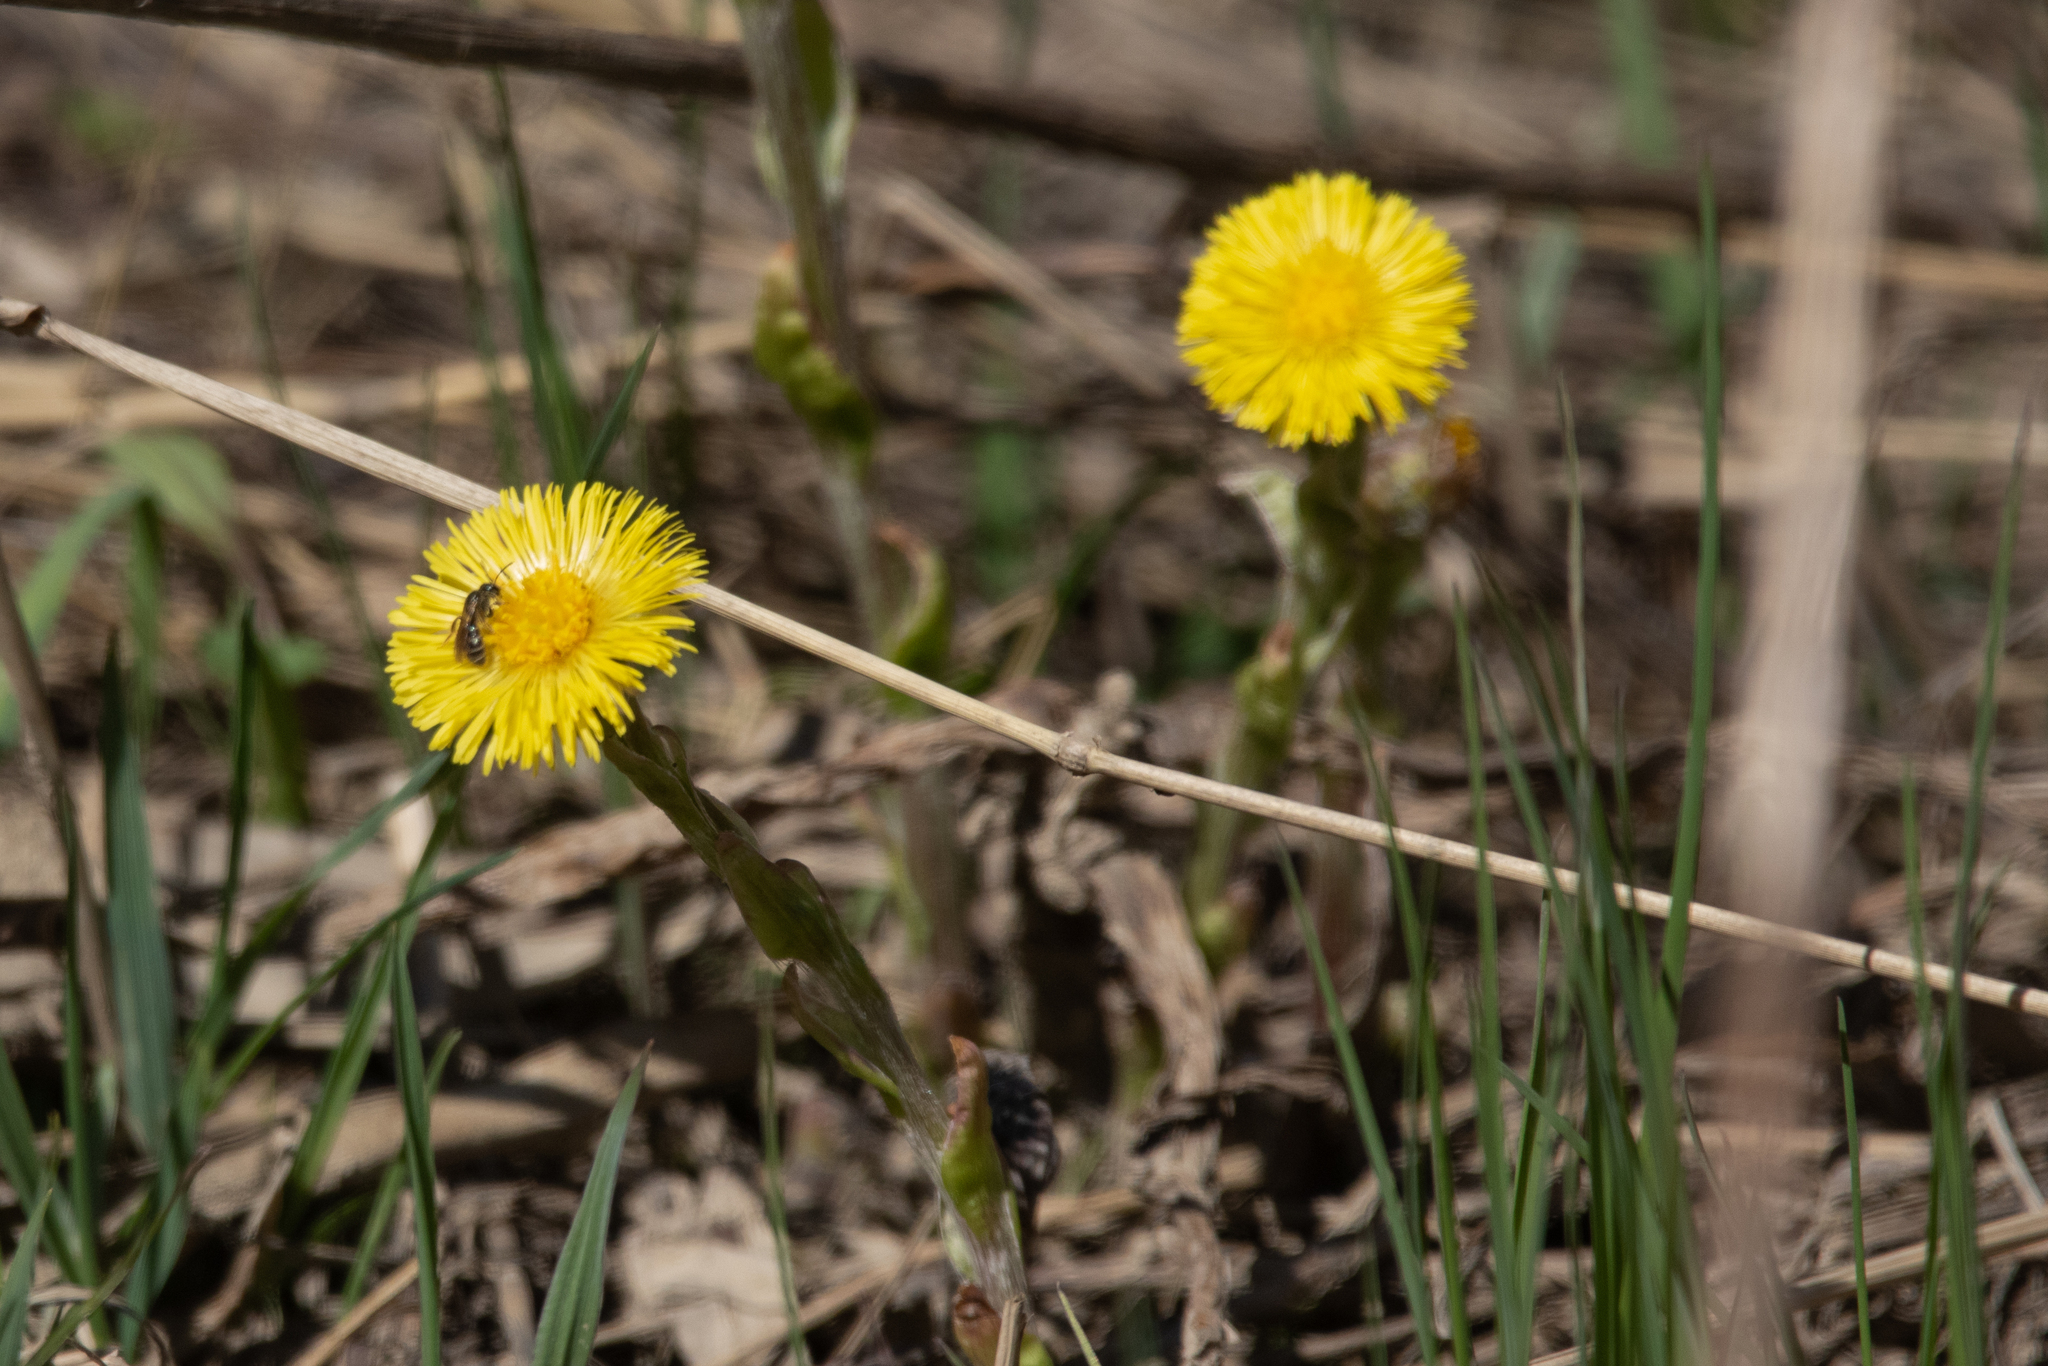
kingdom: Plantae
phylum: Tracheophyta
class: Magnoliopsida
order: Asterales
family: Asteraceae
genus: Tussilago
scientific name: Tussilago farfara
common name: Coltsfoot
